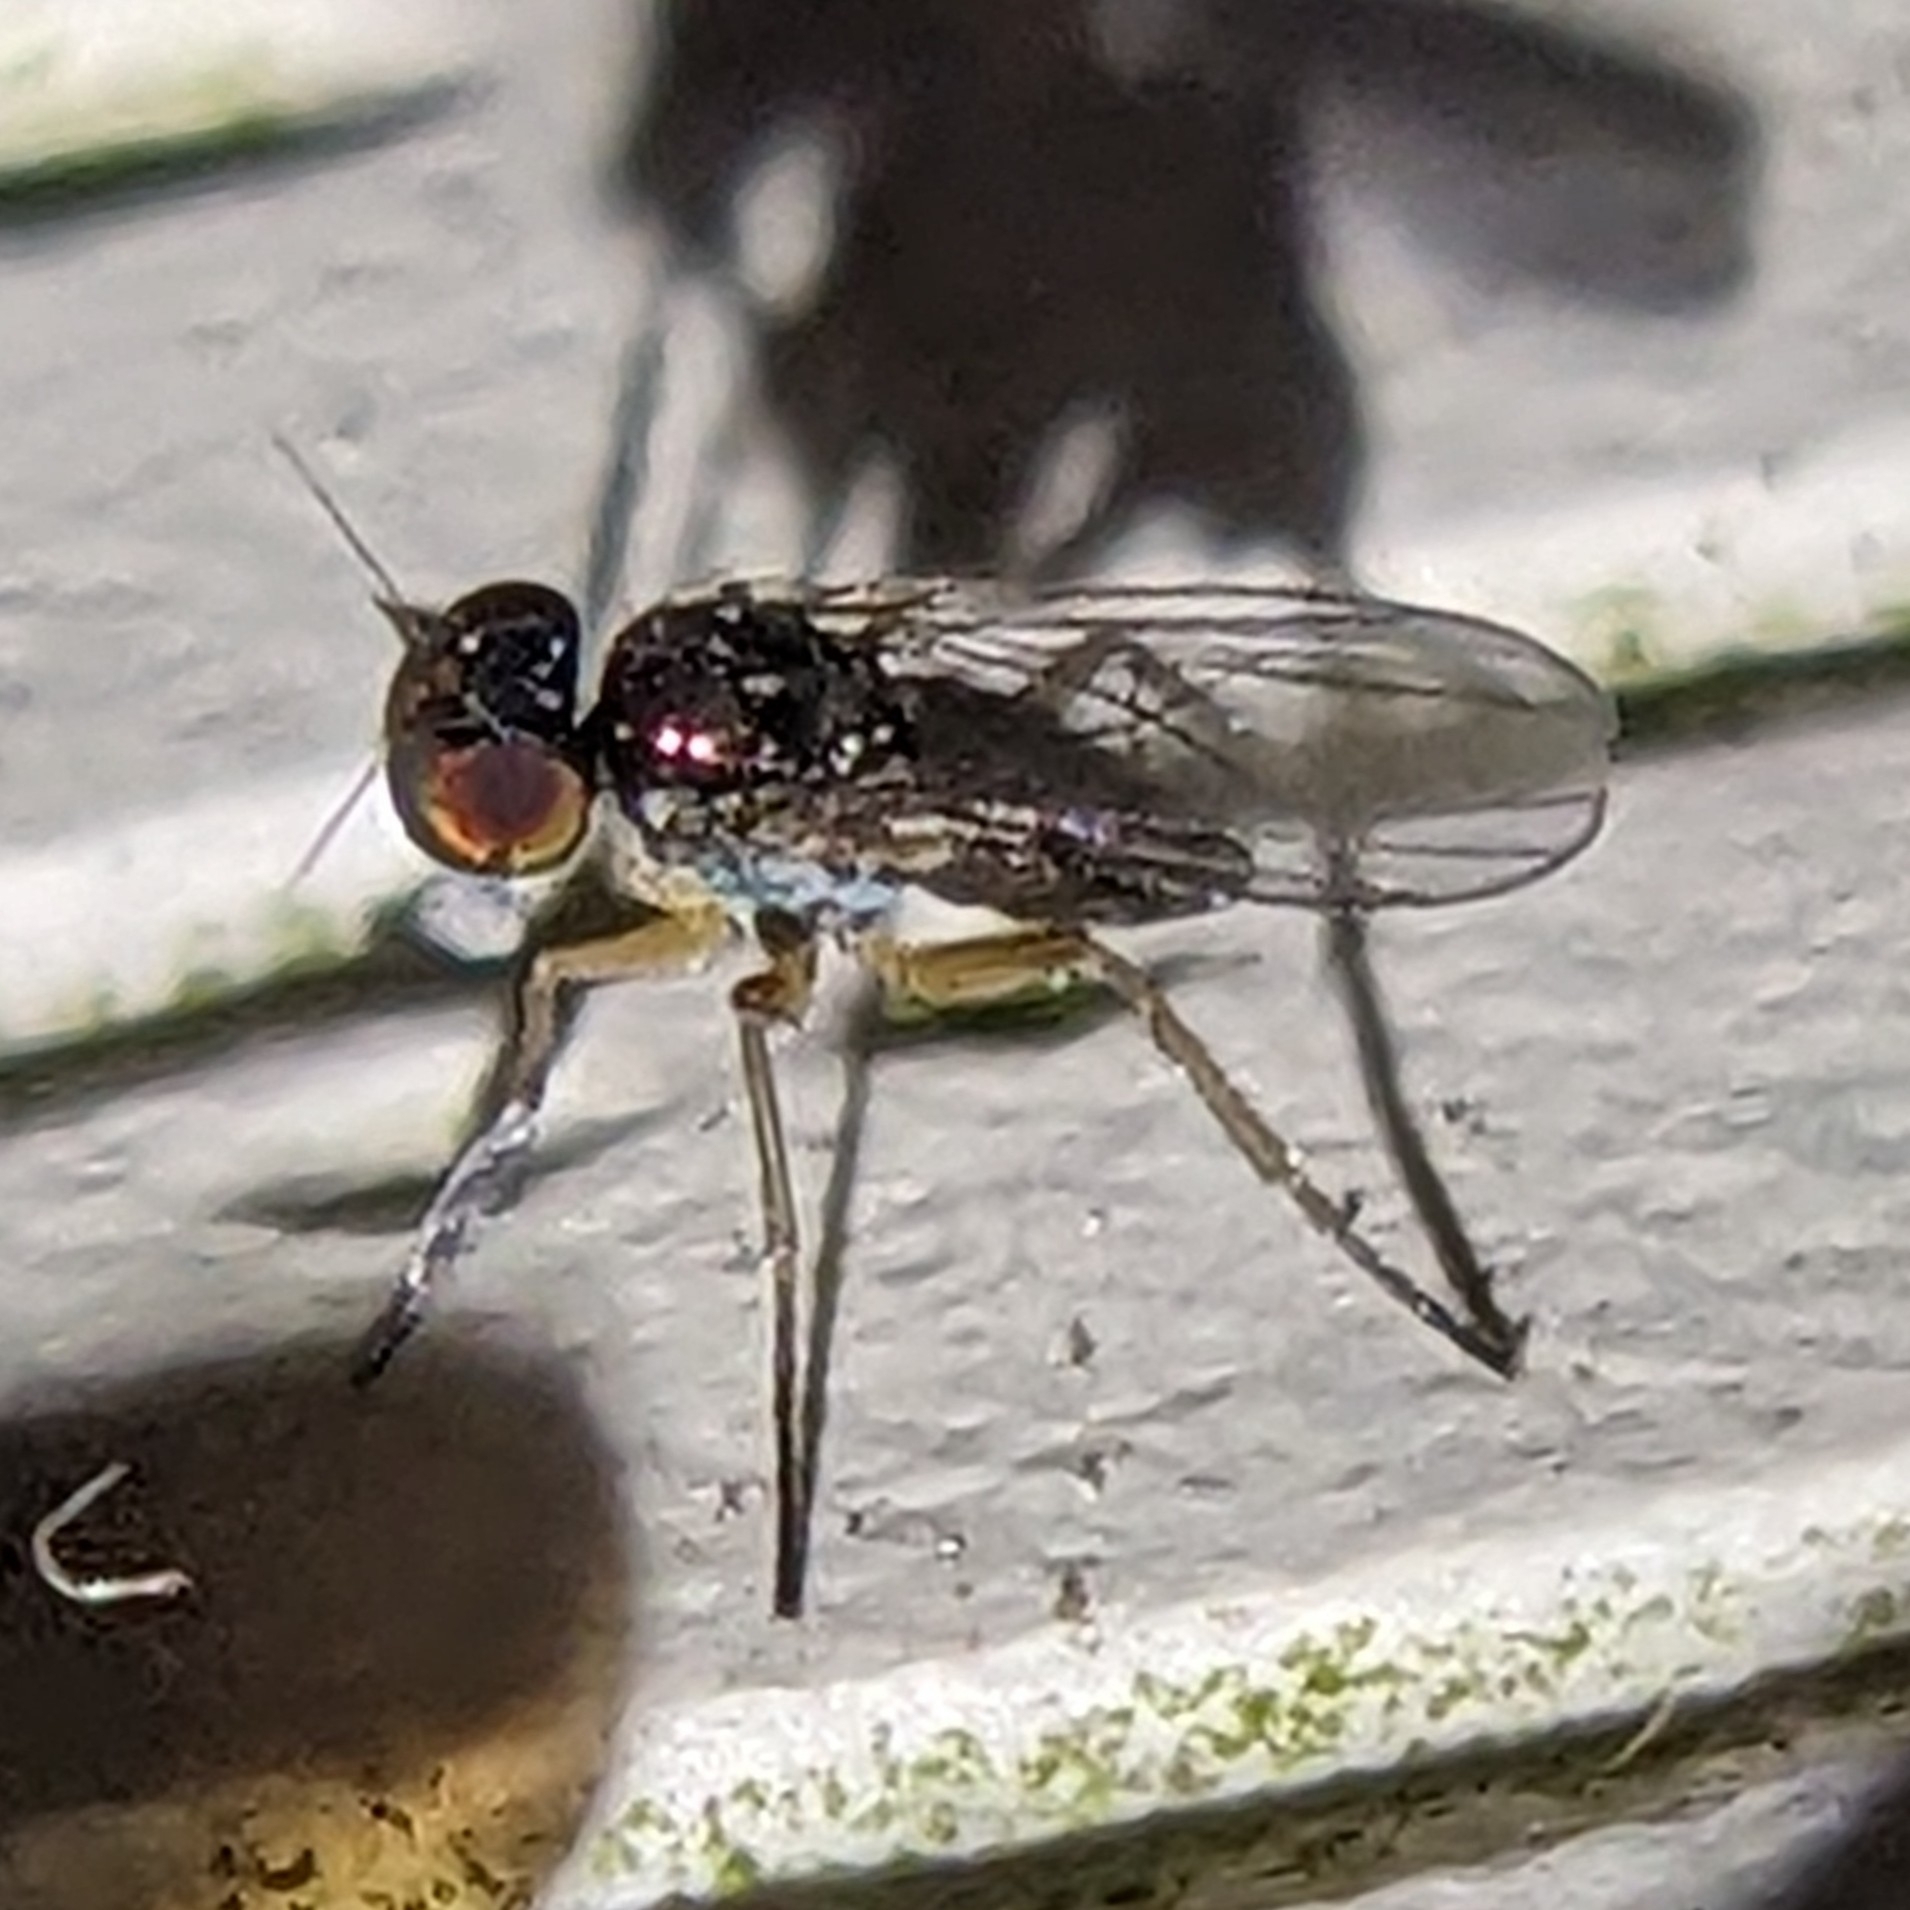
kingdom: Animalia
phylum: Arthropoda
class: Insecta
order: Diptera
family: Dolichopodidae
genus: Chrysotus
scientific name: Chrysotus tarsalis
